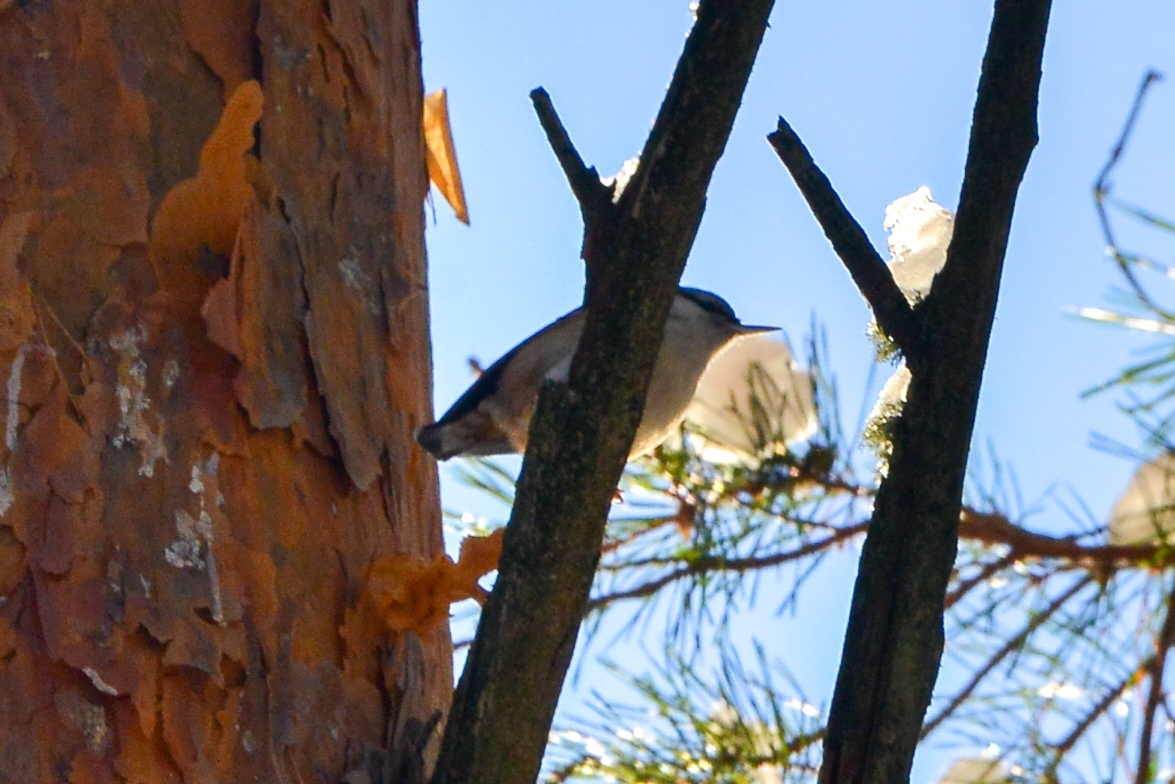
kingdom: Animalia
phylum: Chordata
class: Aves
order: Passeriformes
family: Sittidae
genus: Sitta
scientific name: Sitta europaea
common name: Eurasian nuthatch
